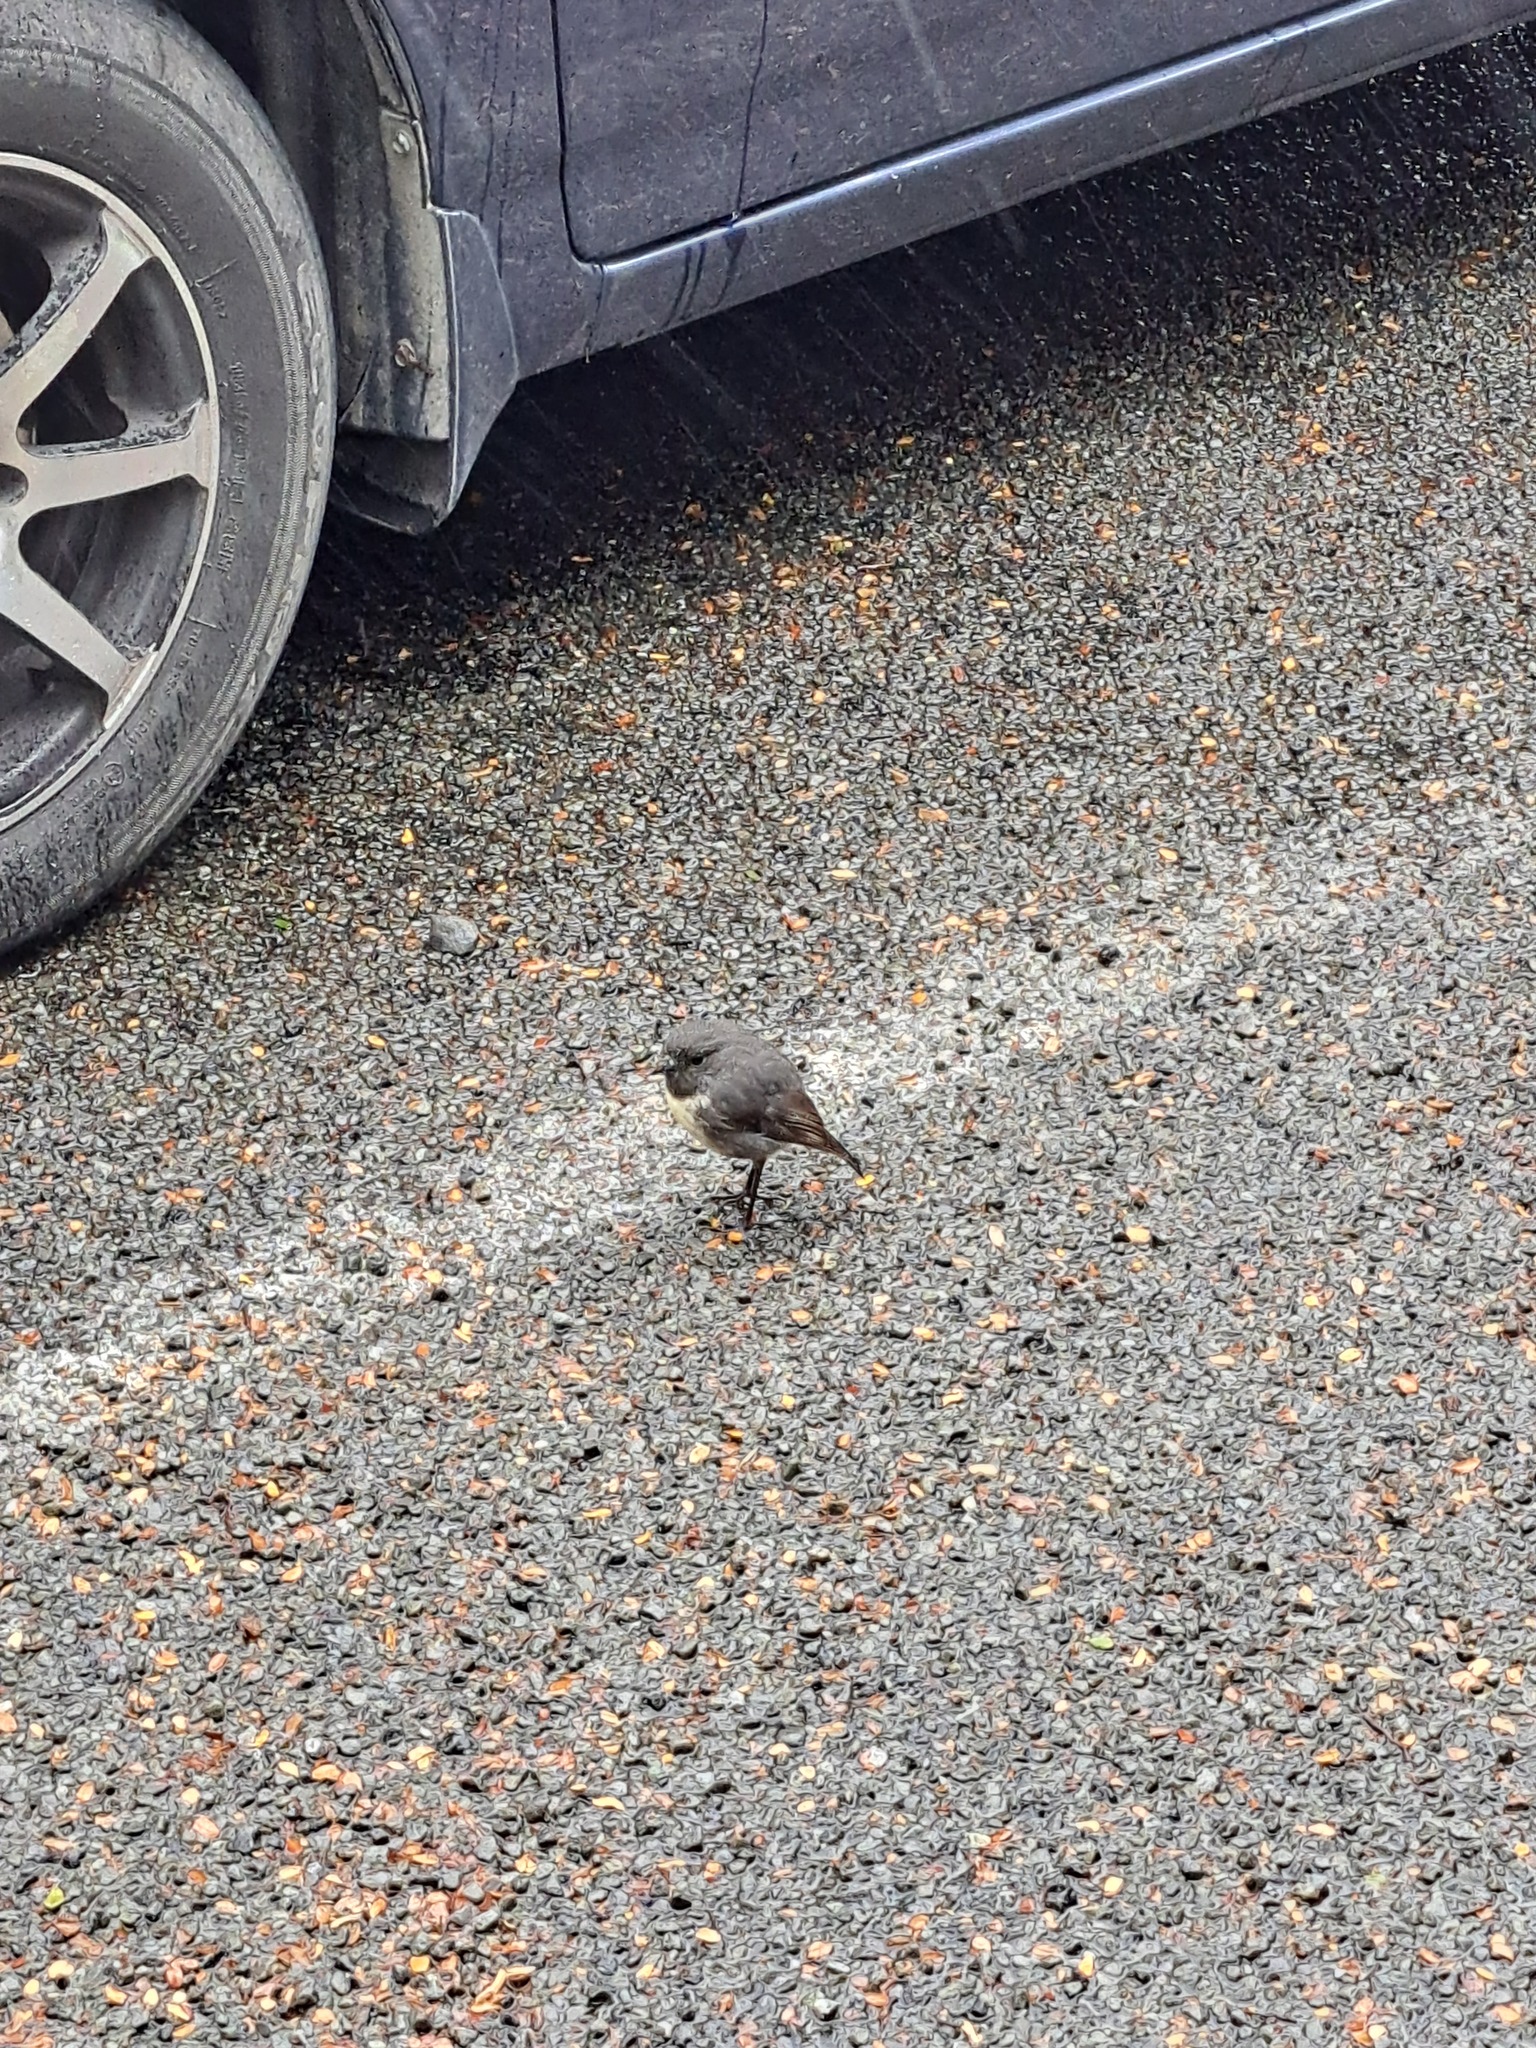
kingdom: Animalia
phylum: Chordata
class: Aves
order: Passeriformes
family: Petroicidae
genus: Petroica
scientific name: Petroica australis
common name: New zealand robin
